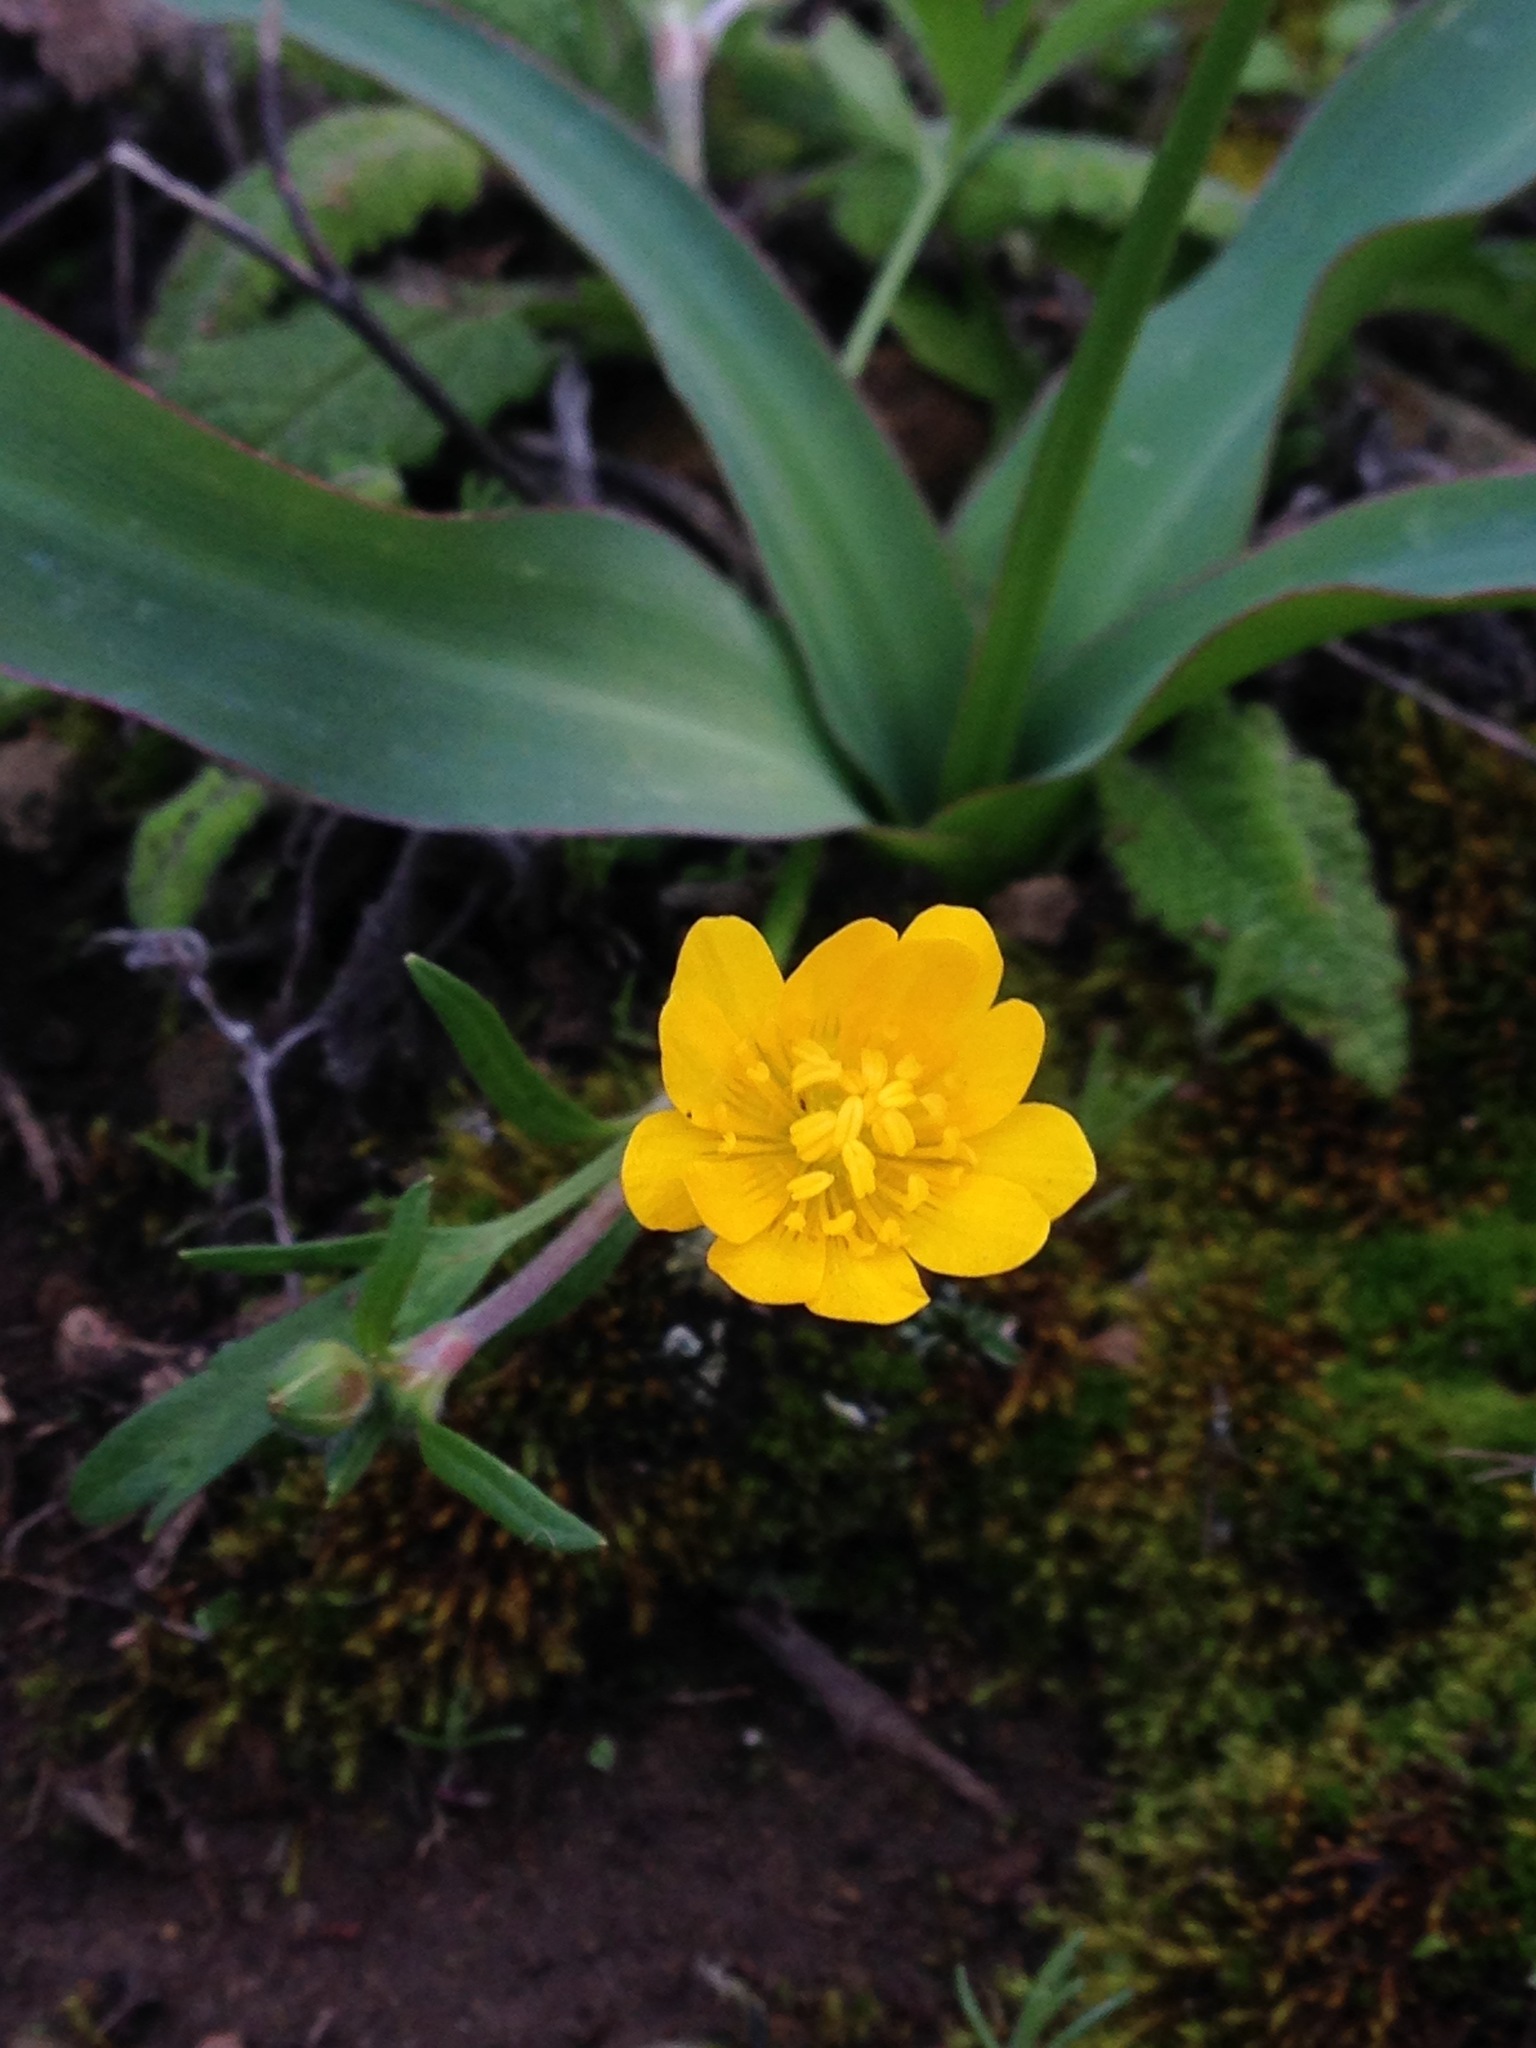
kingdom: Plantae
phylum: Tracheophyta
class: Magnoliopsida
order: Ranunculales
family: Ranunculaceae
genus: Ranunculus
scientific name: Ranunculus californicus
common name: California buttercup
